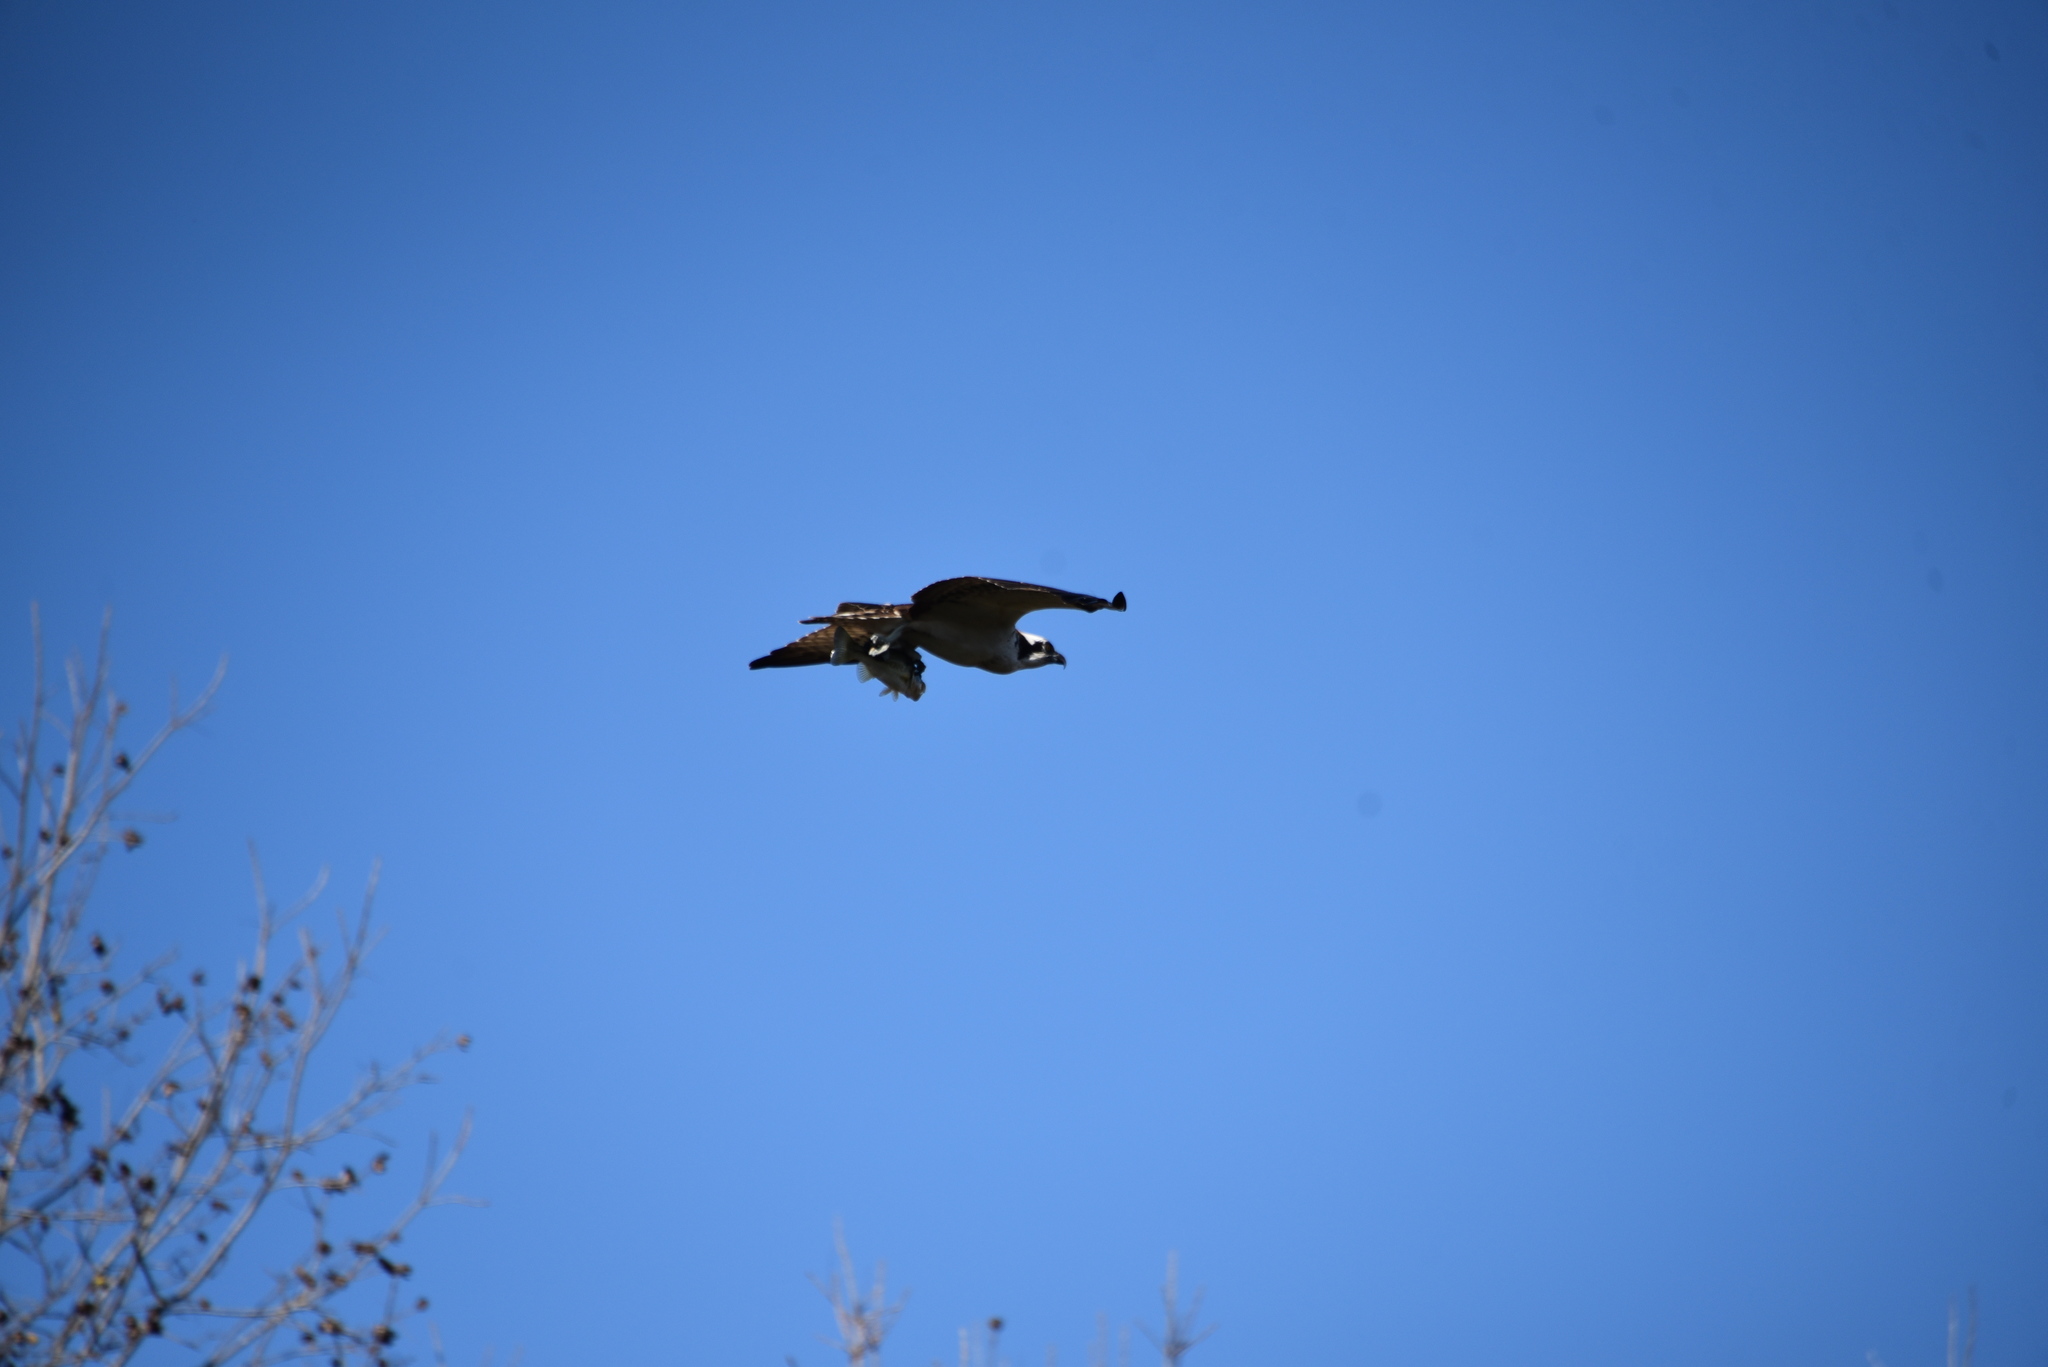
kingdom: Animalia
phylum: Chordata
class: Aves
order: Accipitriformes
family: Pandionidae
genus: Pandion
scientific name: Pandion haliaetus
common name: Osprey
